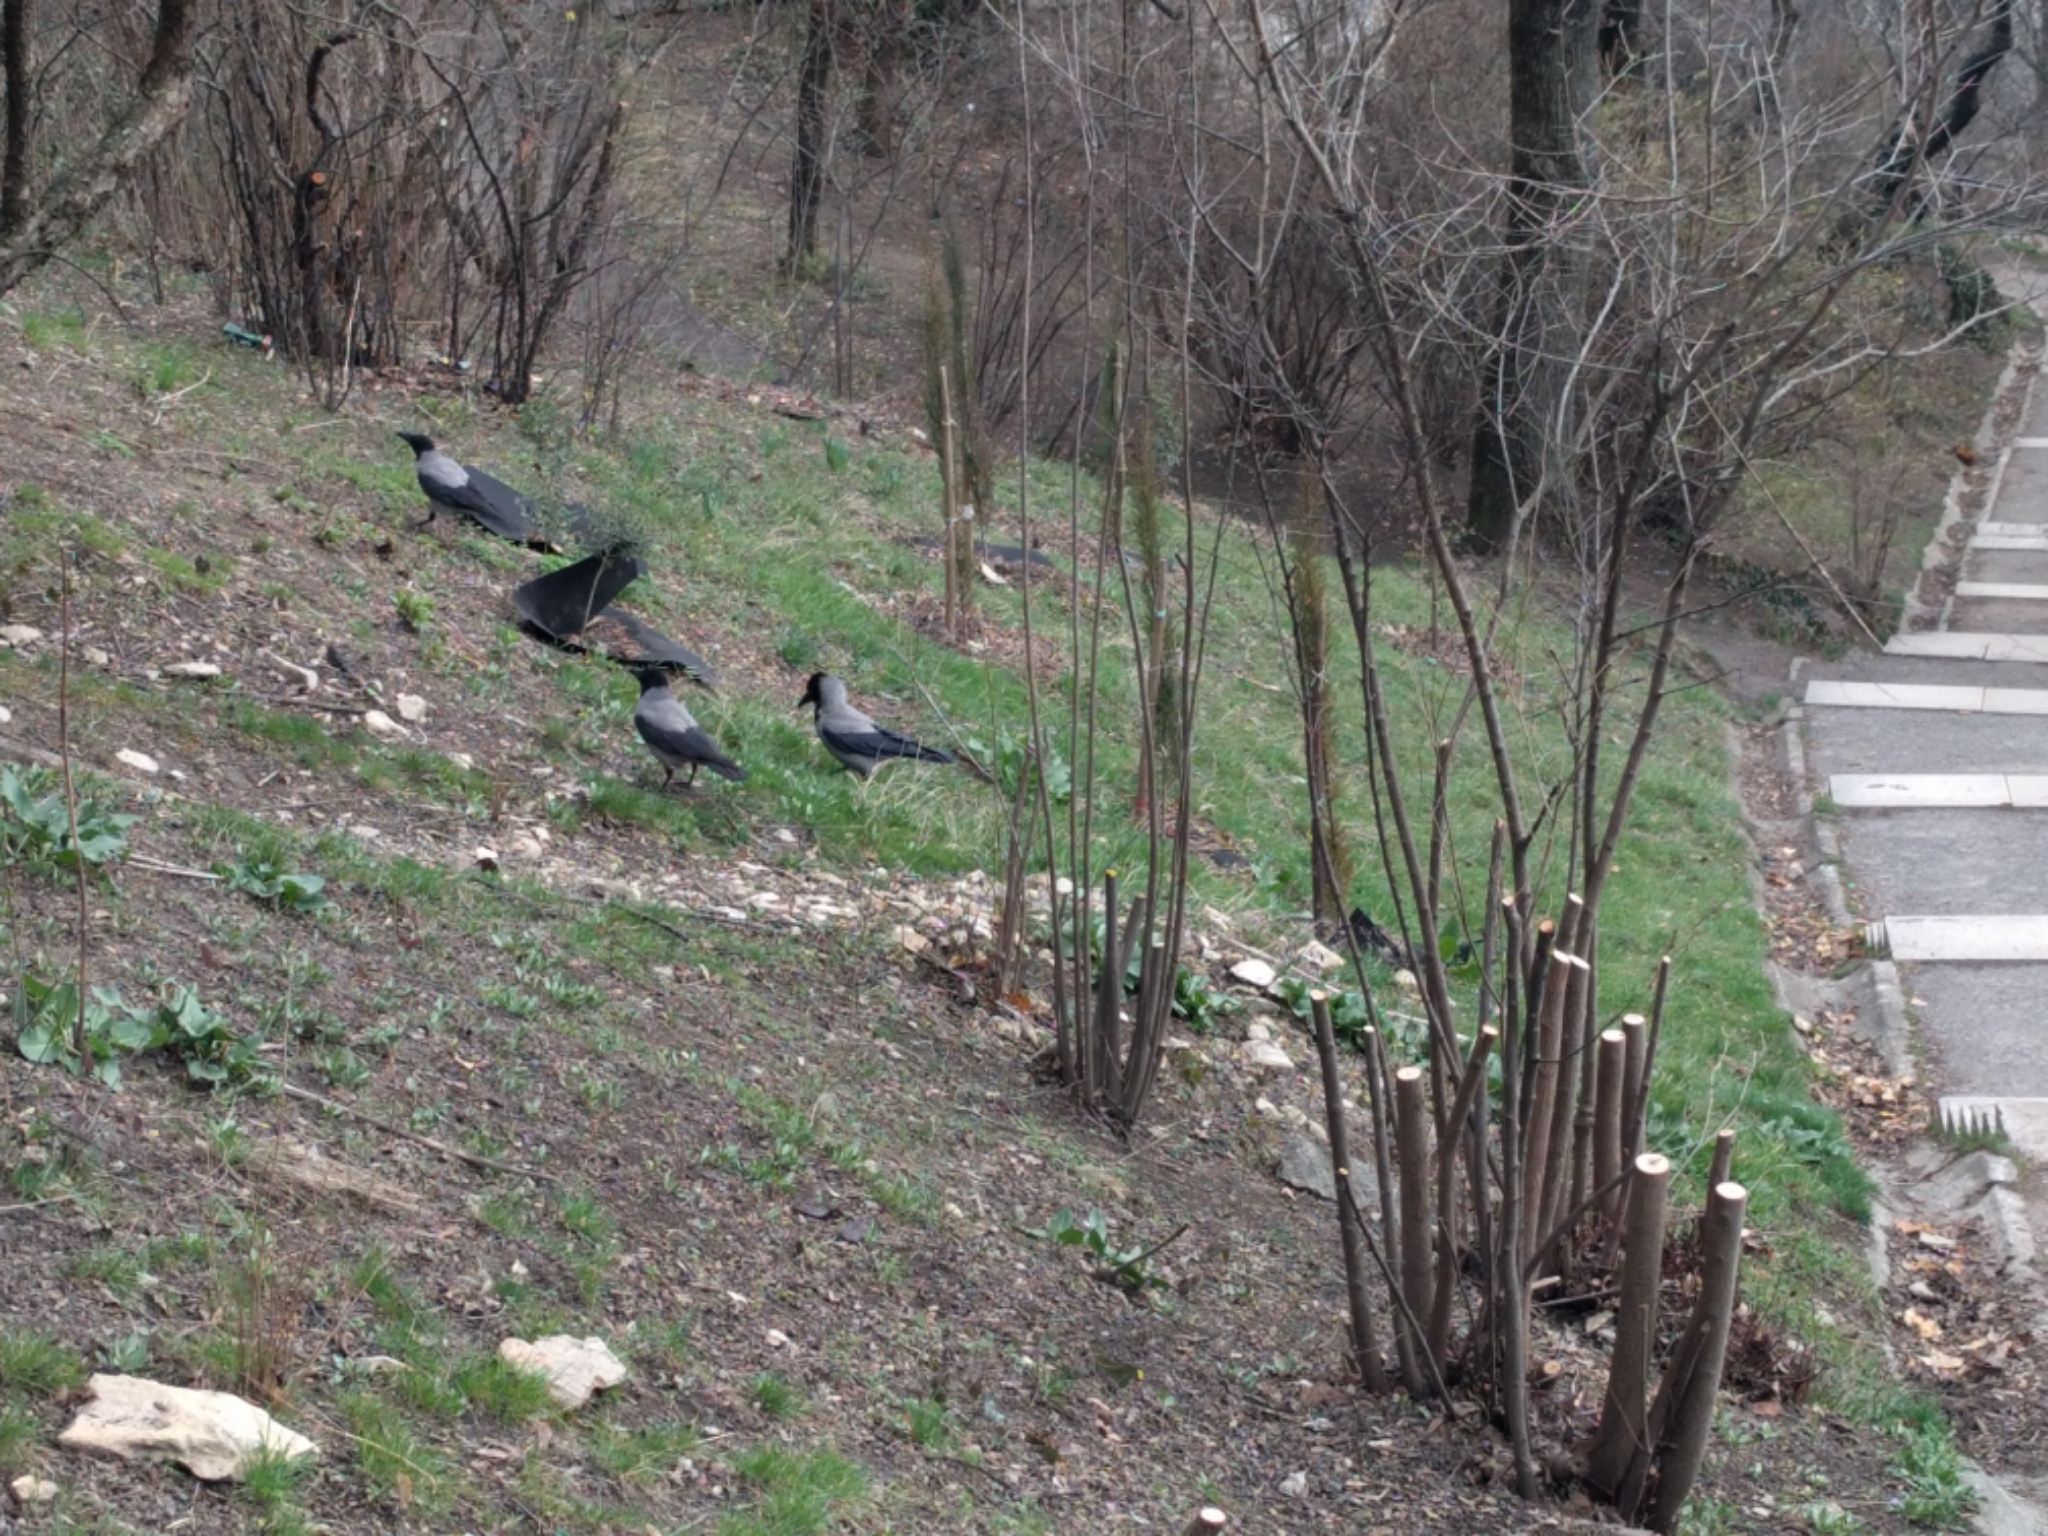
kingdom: Animalia
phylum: Chordata
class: Aves
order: Passeriformes
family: Corvidae
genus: Corvus
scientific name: Corvus cornix
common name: Hooded crow
